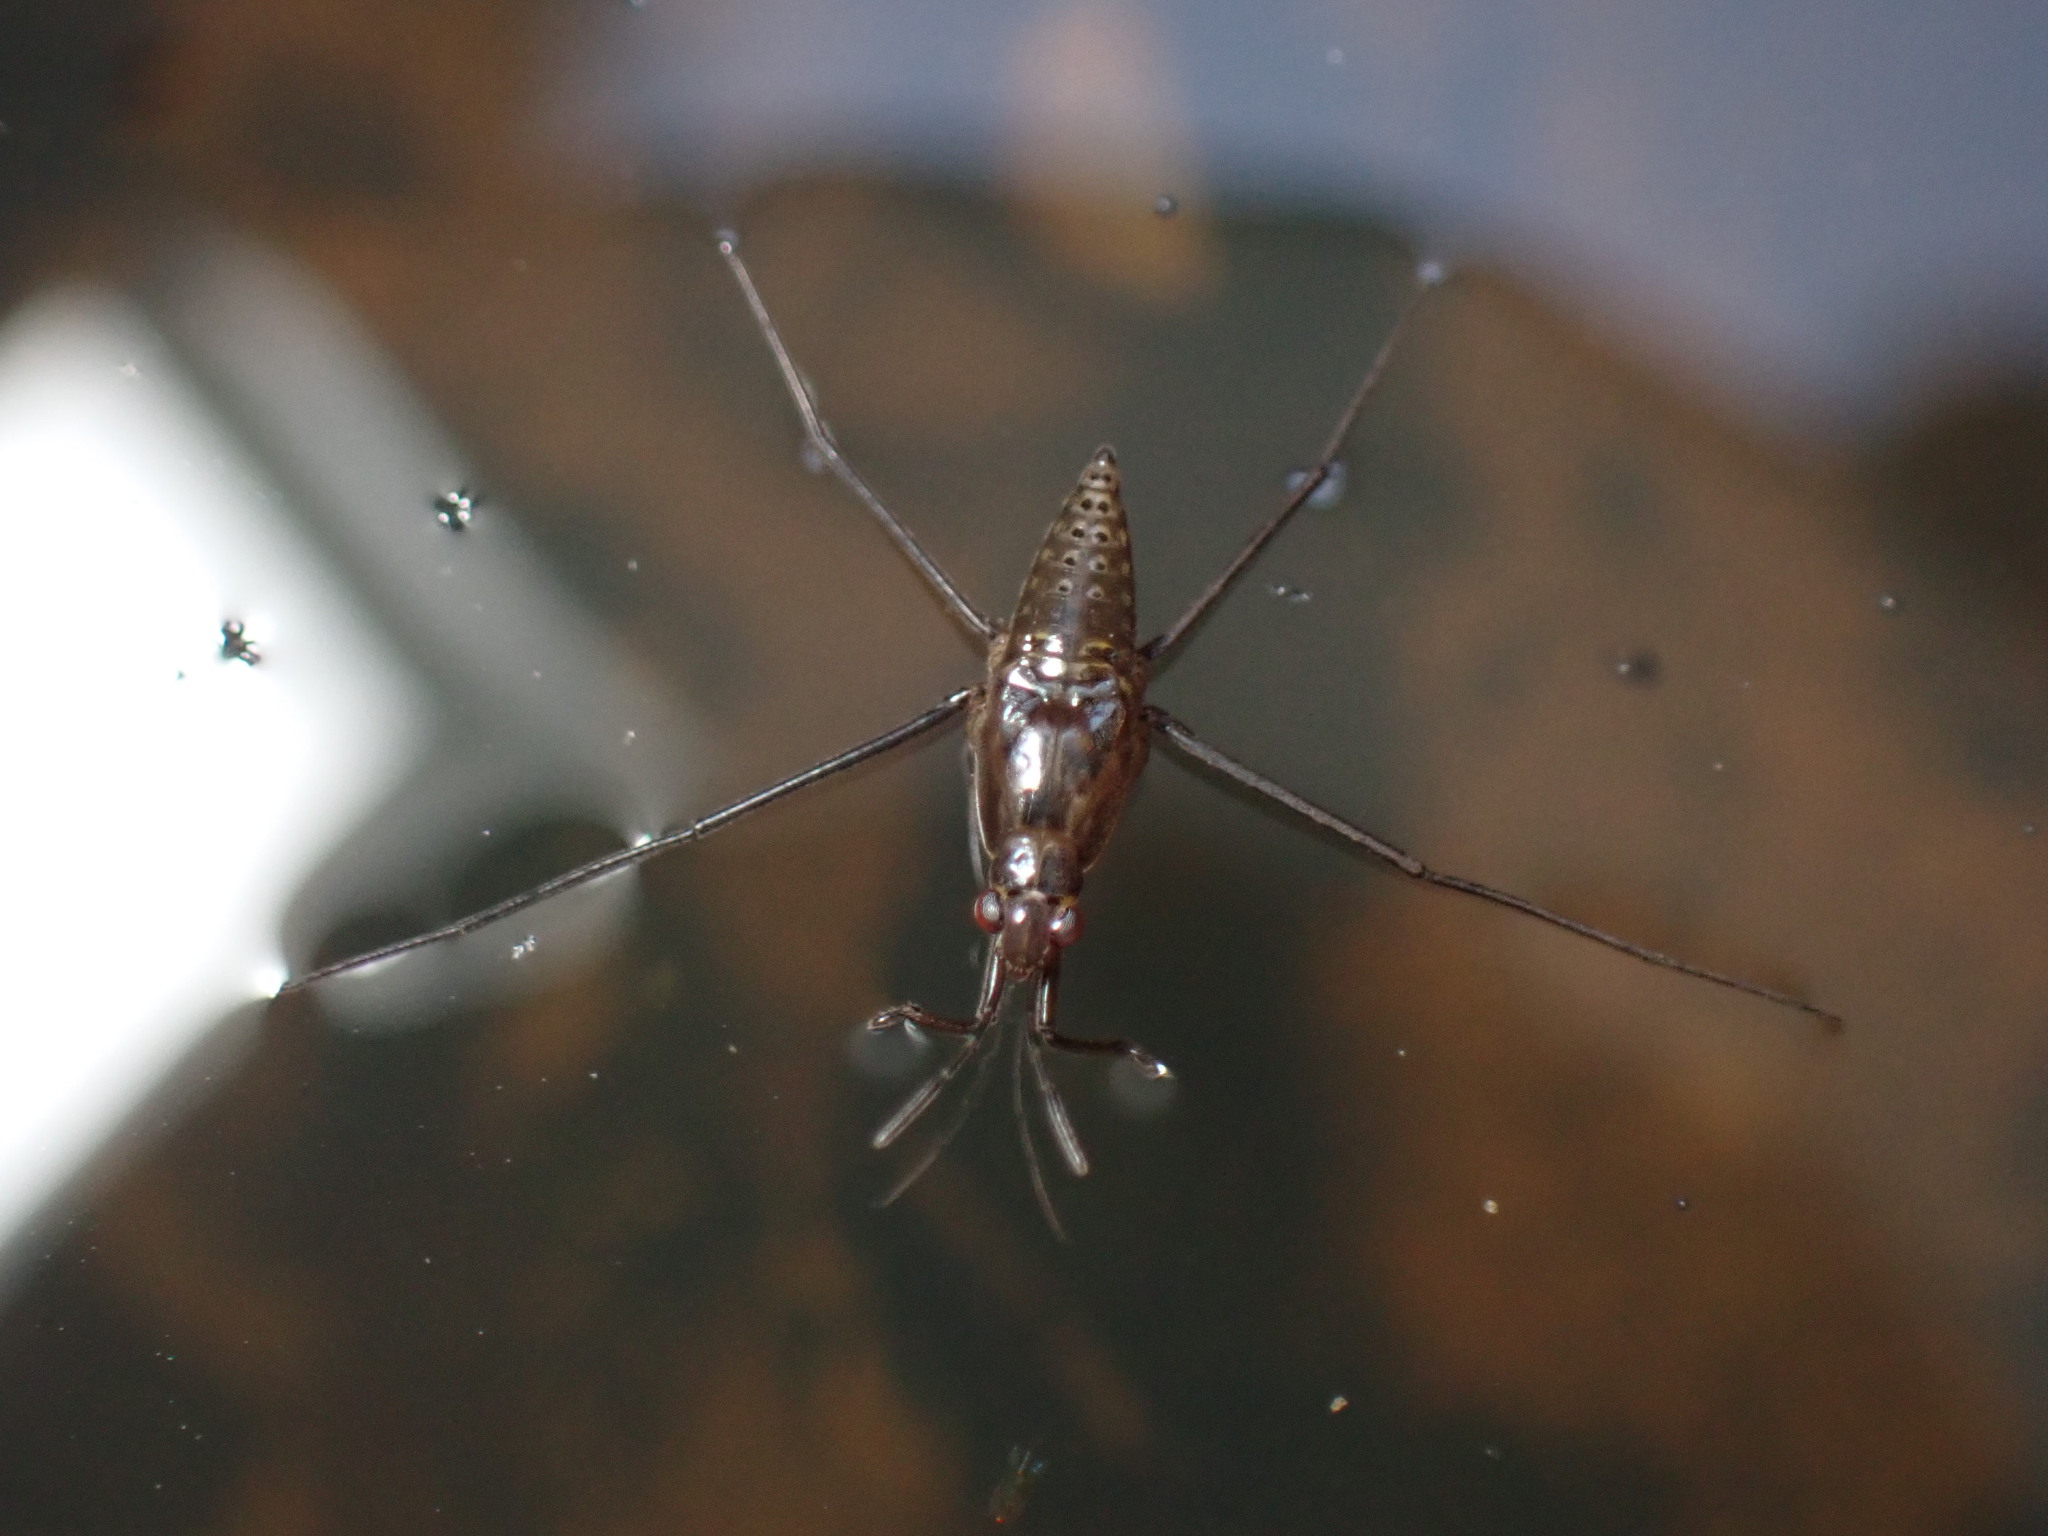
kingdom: Animalia
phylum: Arthropoda
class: Insecta
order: Hemiptera
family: Gerridae
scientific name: Gerridae
